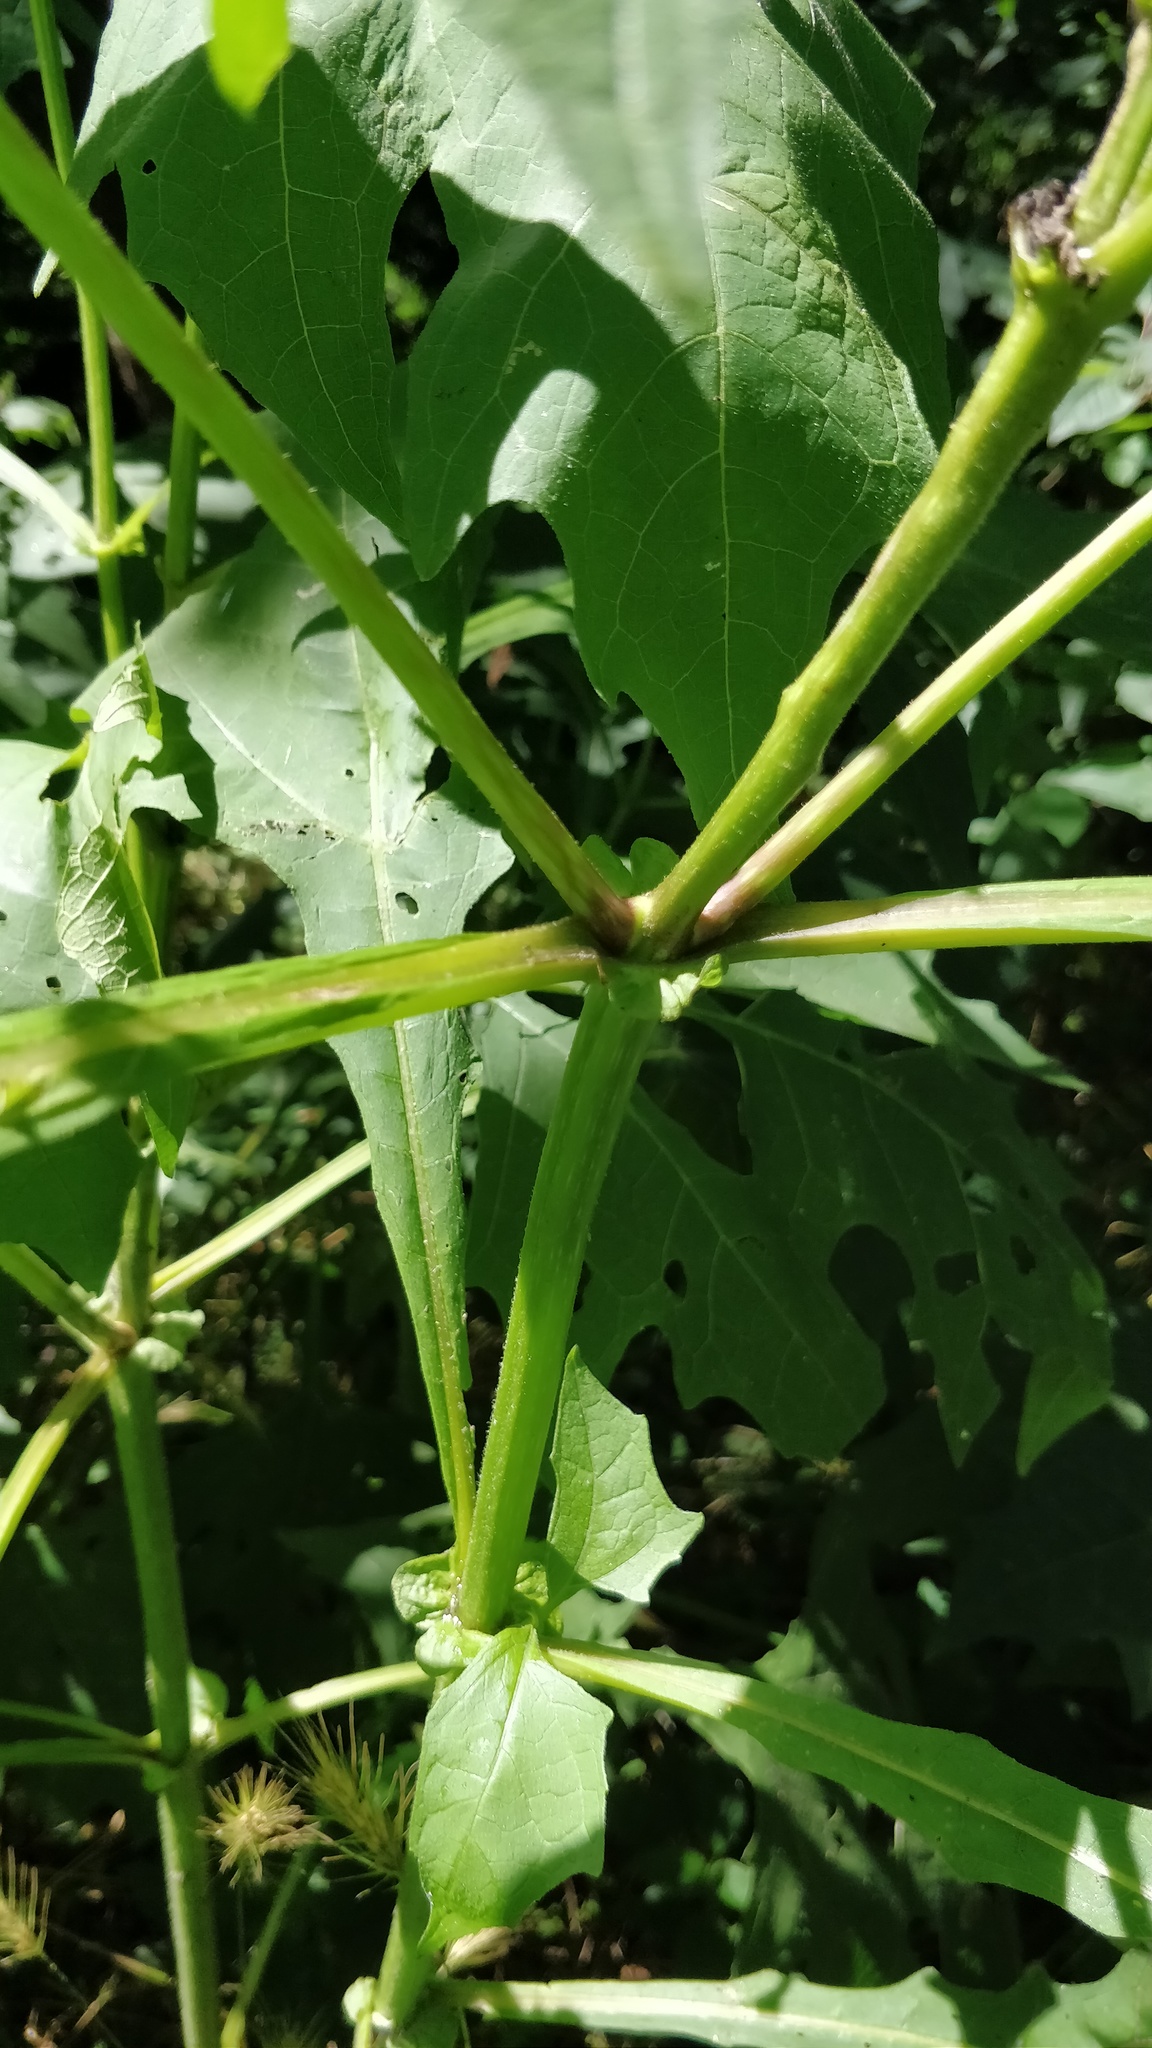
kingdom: Plantae
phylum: Tracheophyta
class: Magnoliopsida
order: Asterales
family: Asteraceae
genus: Smallanthus
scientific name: Smallanthus uvedalia
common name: Bear's-foot
